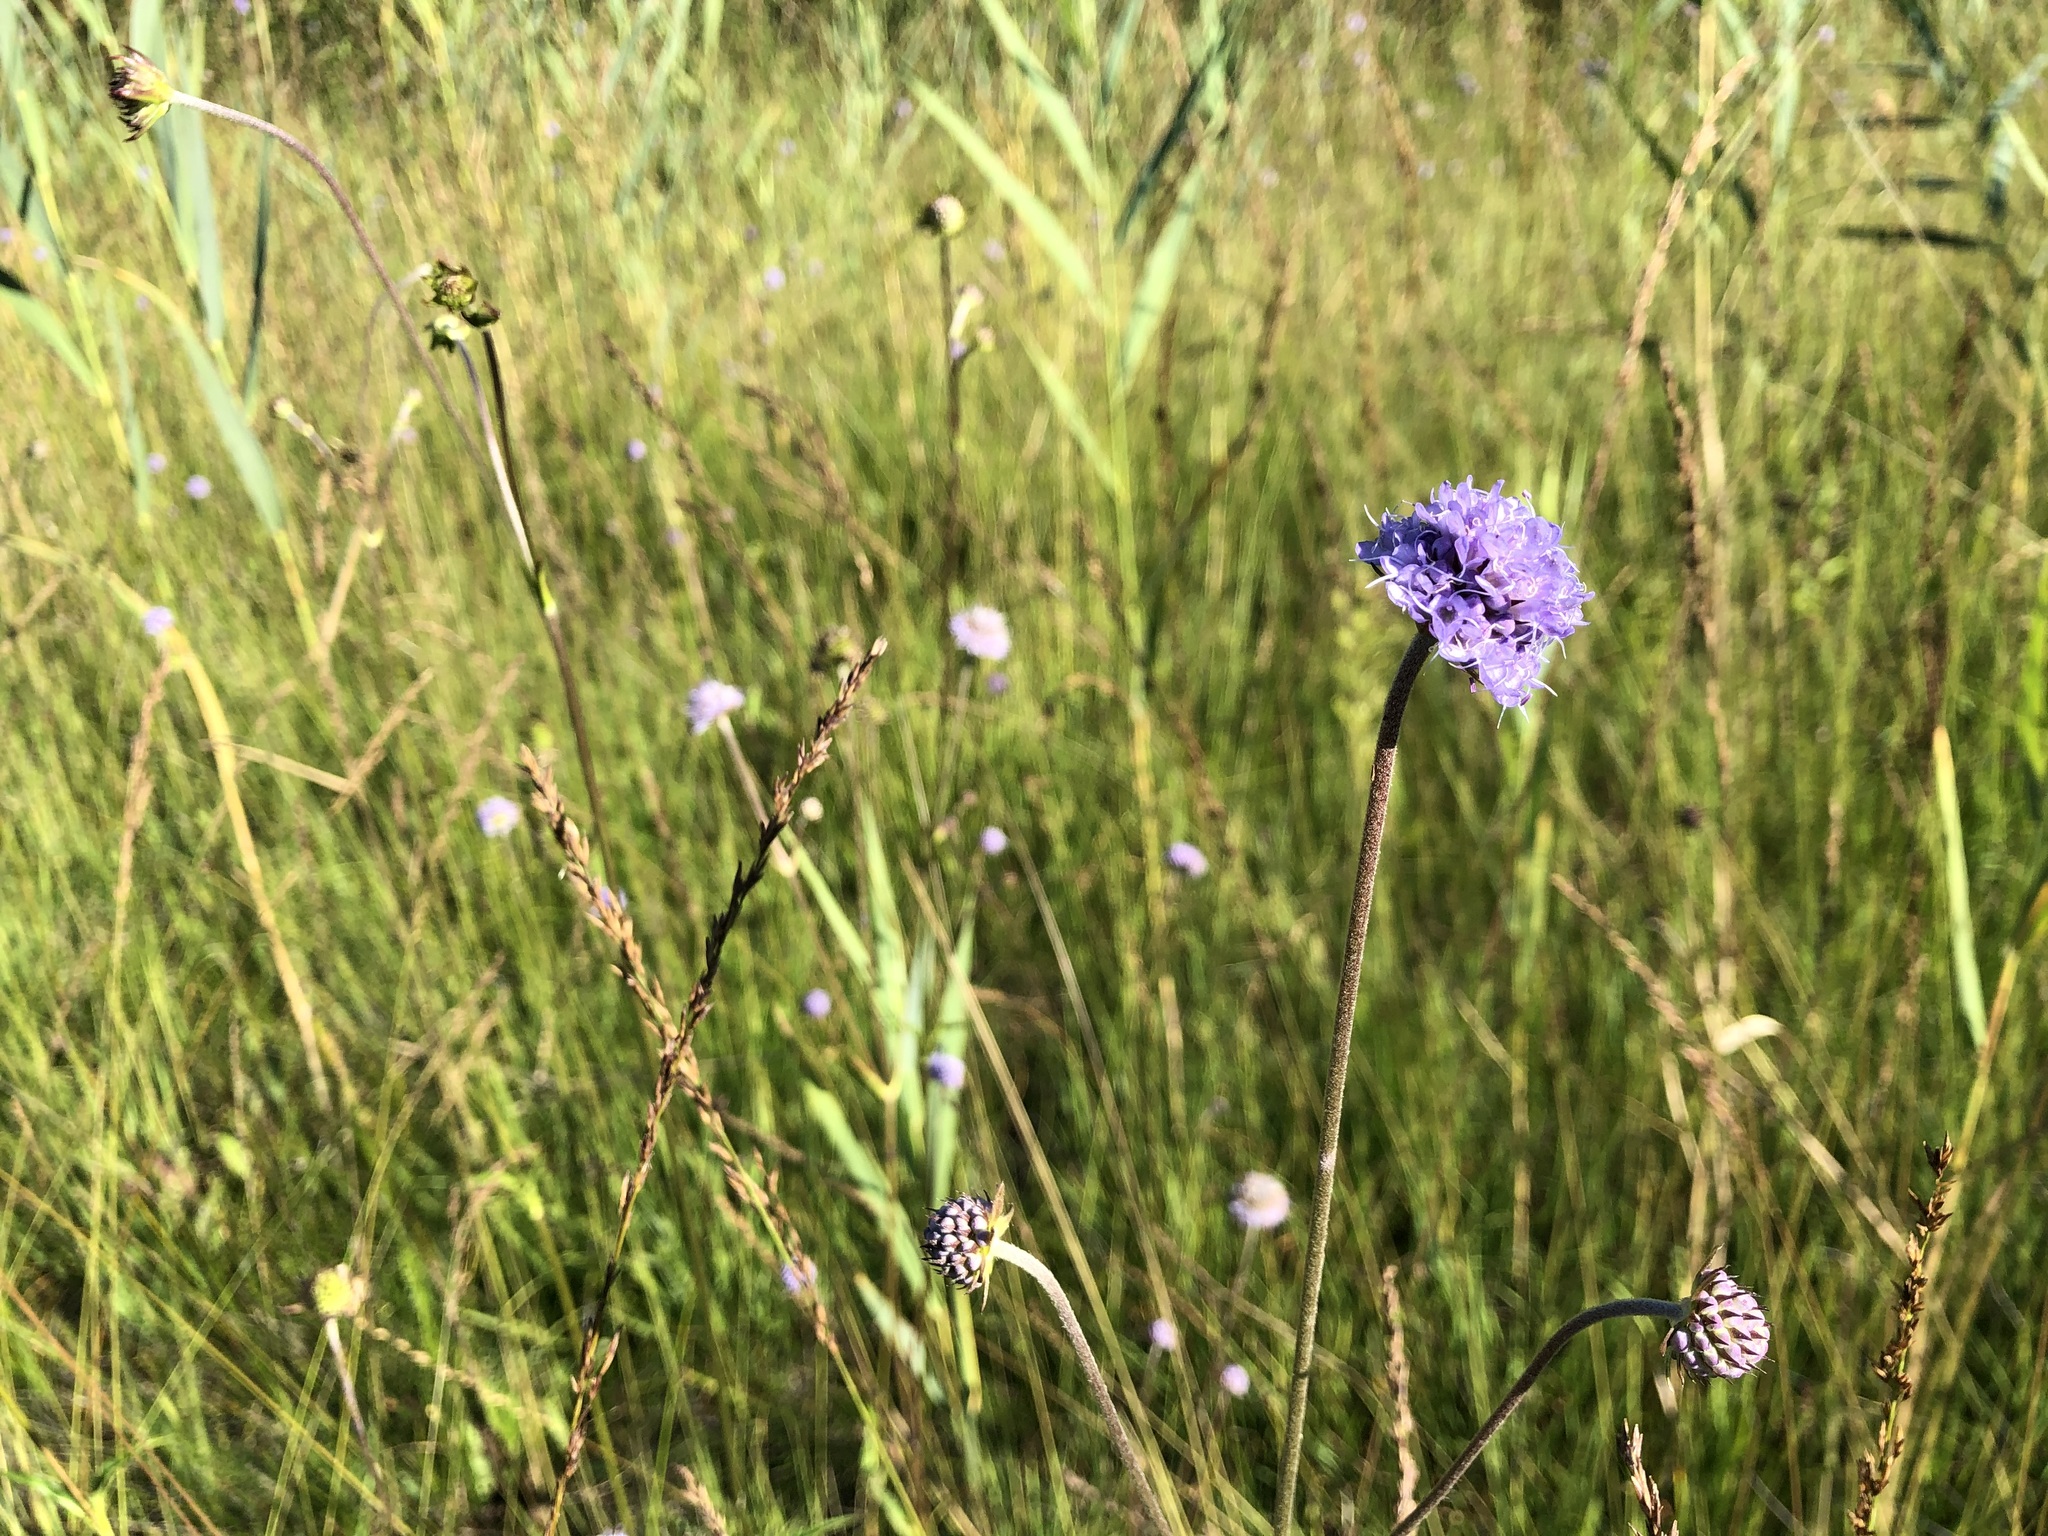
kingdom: Plantae
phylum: Tracheophyta
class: Magnoliopsida
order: Dipsacales
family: Caprifoliaceae
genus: Succisa
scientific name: Succisa pratensis
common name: Devil's-bit
